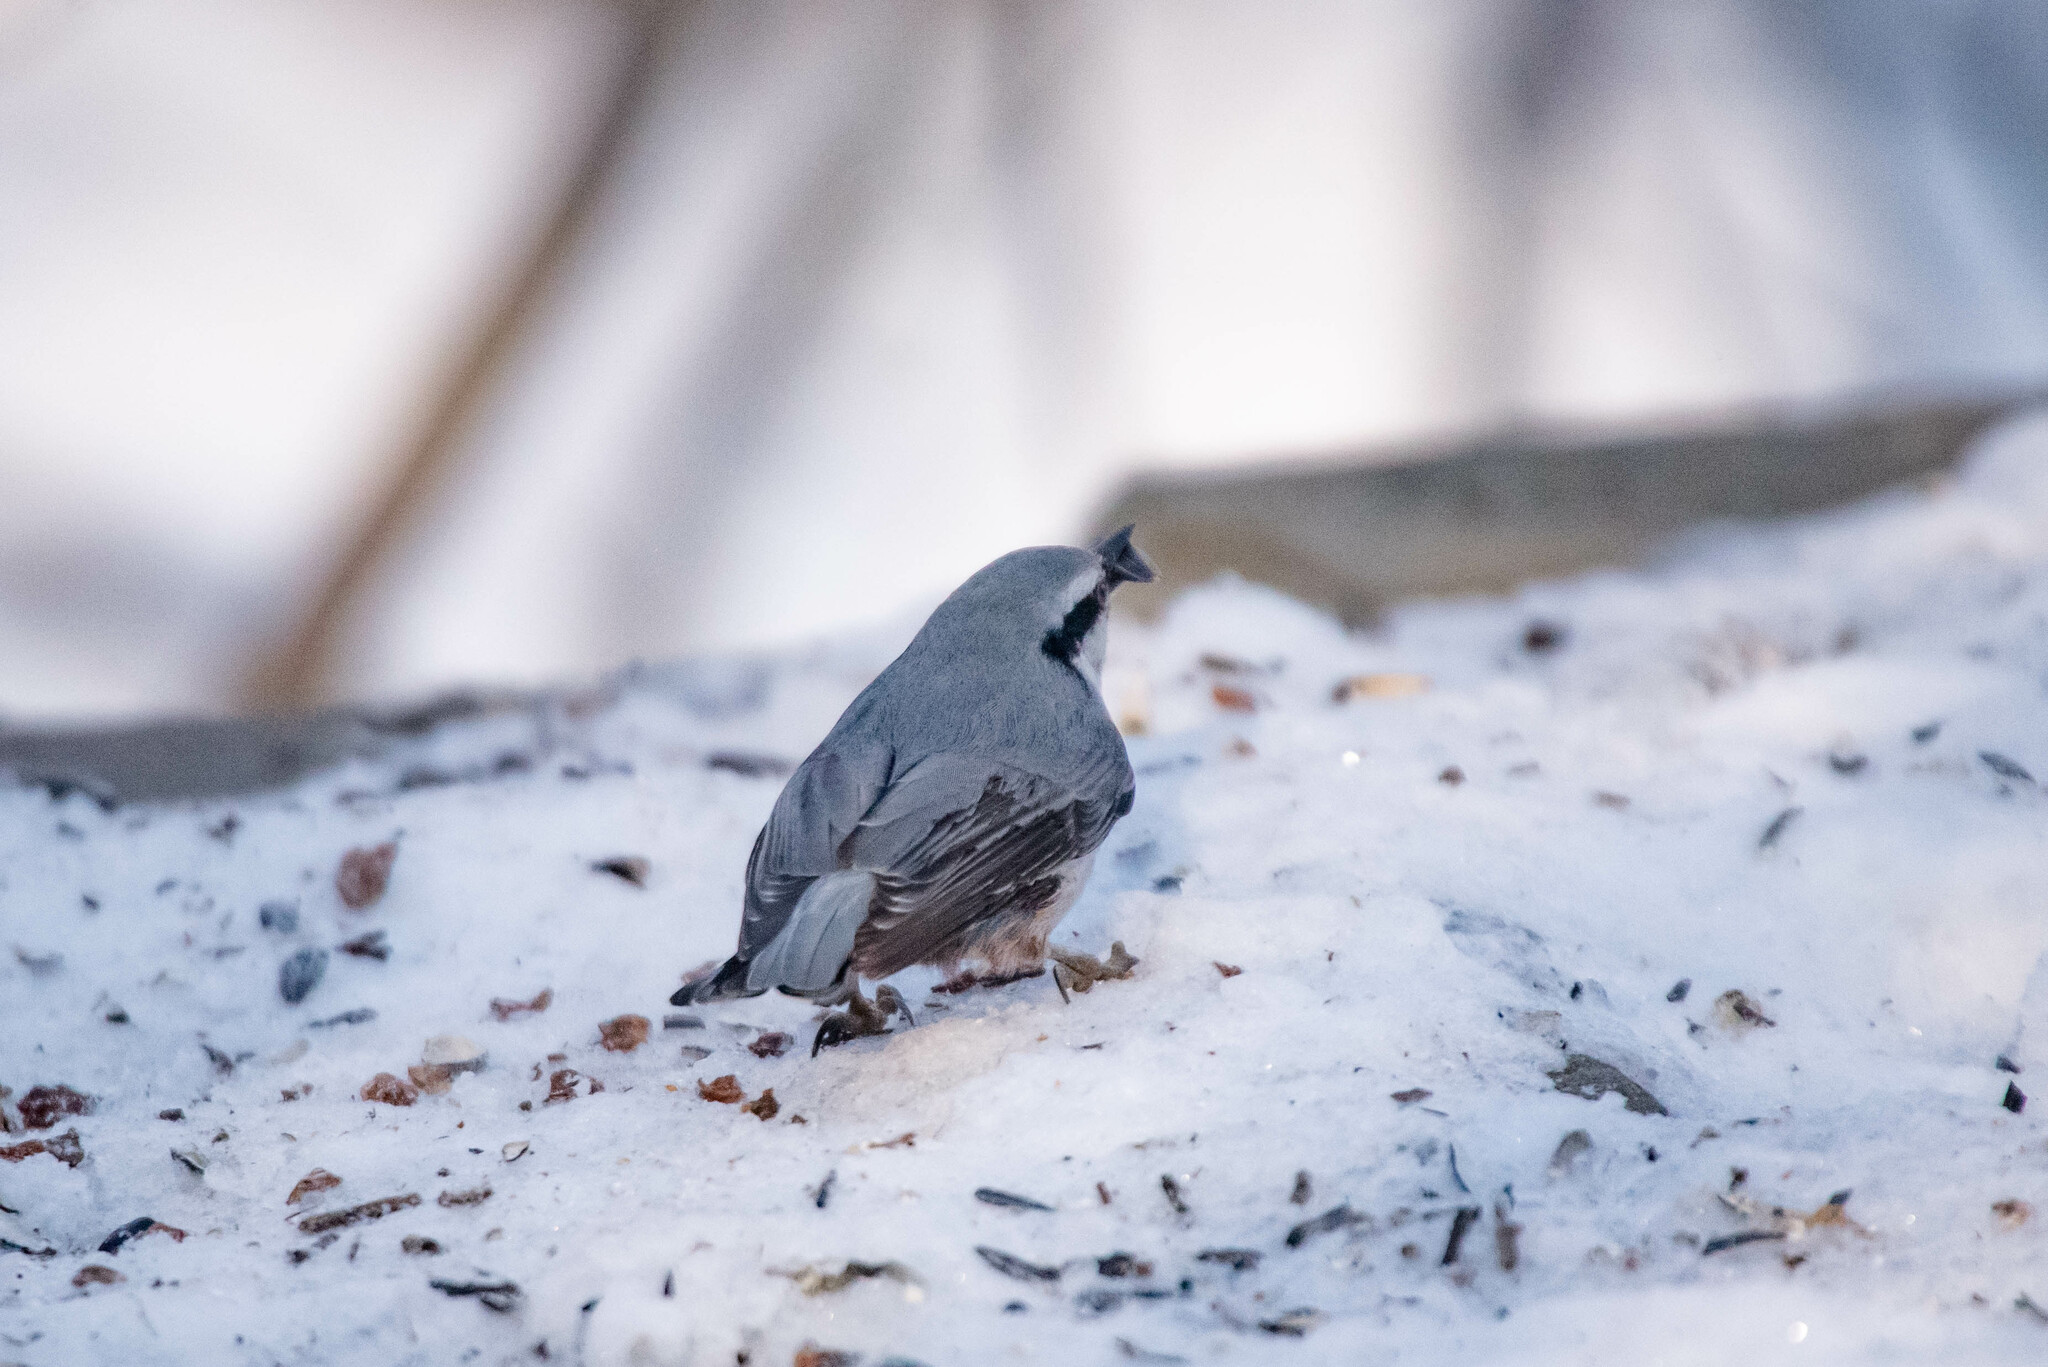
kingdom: Animalia
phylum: Chordata
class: Aves
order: Passeriformes
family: Sittidae
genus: Sitta
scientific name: Sitta europaea
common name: Eurasian nuthatch
